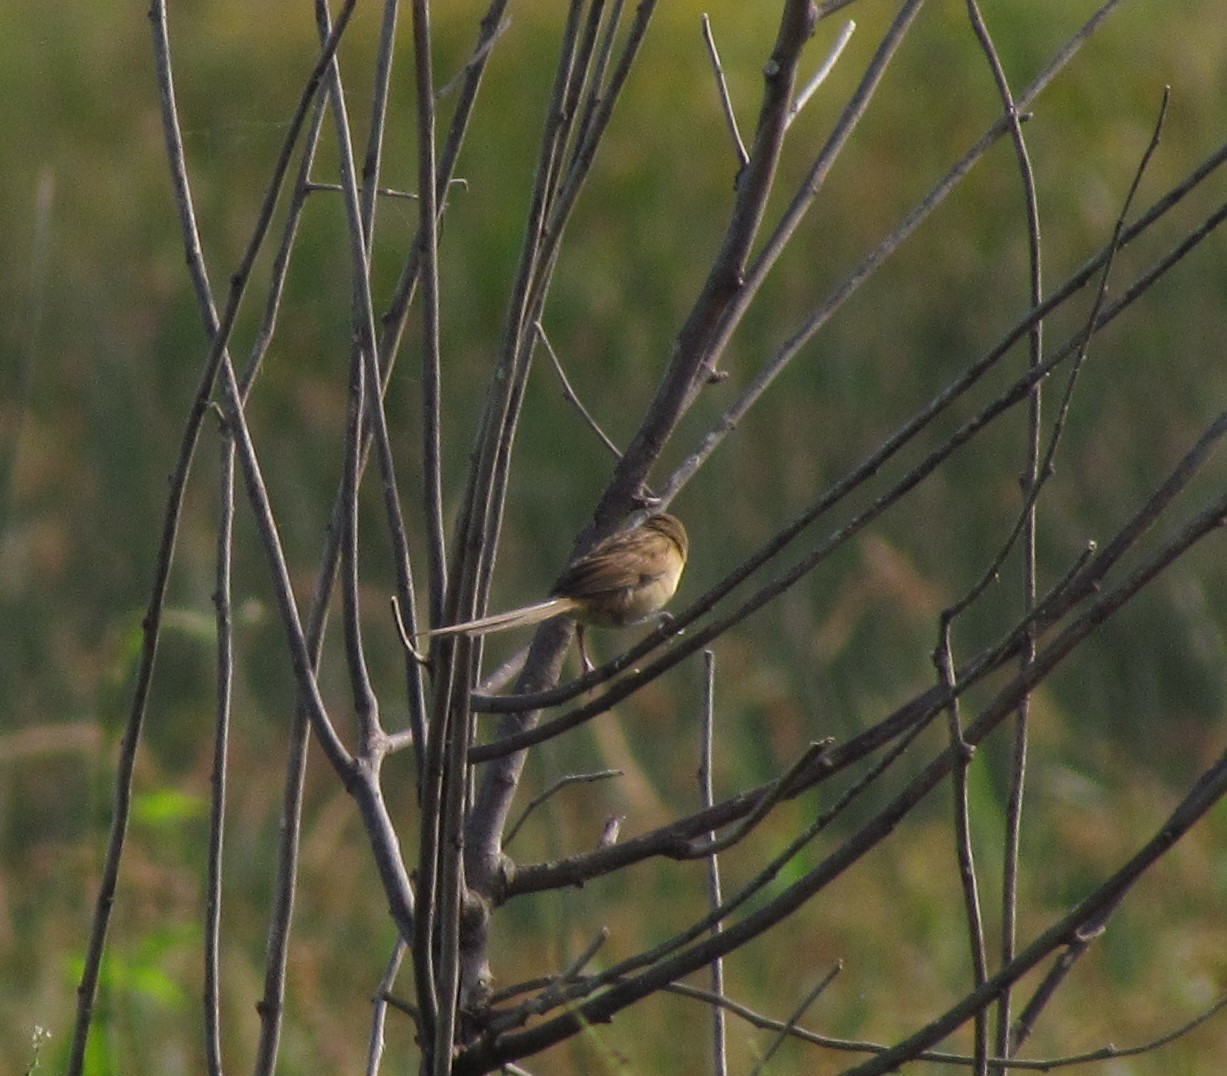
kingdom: Animalia
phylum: Chordata
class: Aves
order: Passeriformes
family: Furnariidae
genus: Schoeniophylax
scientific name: Schoeniophylax phryganophilus
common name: Chotoy spinetail
